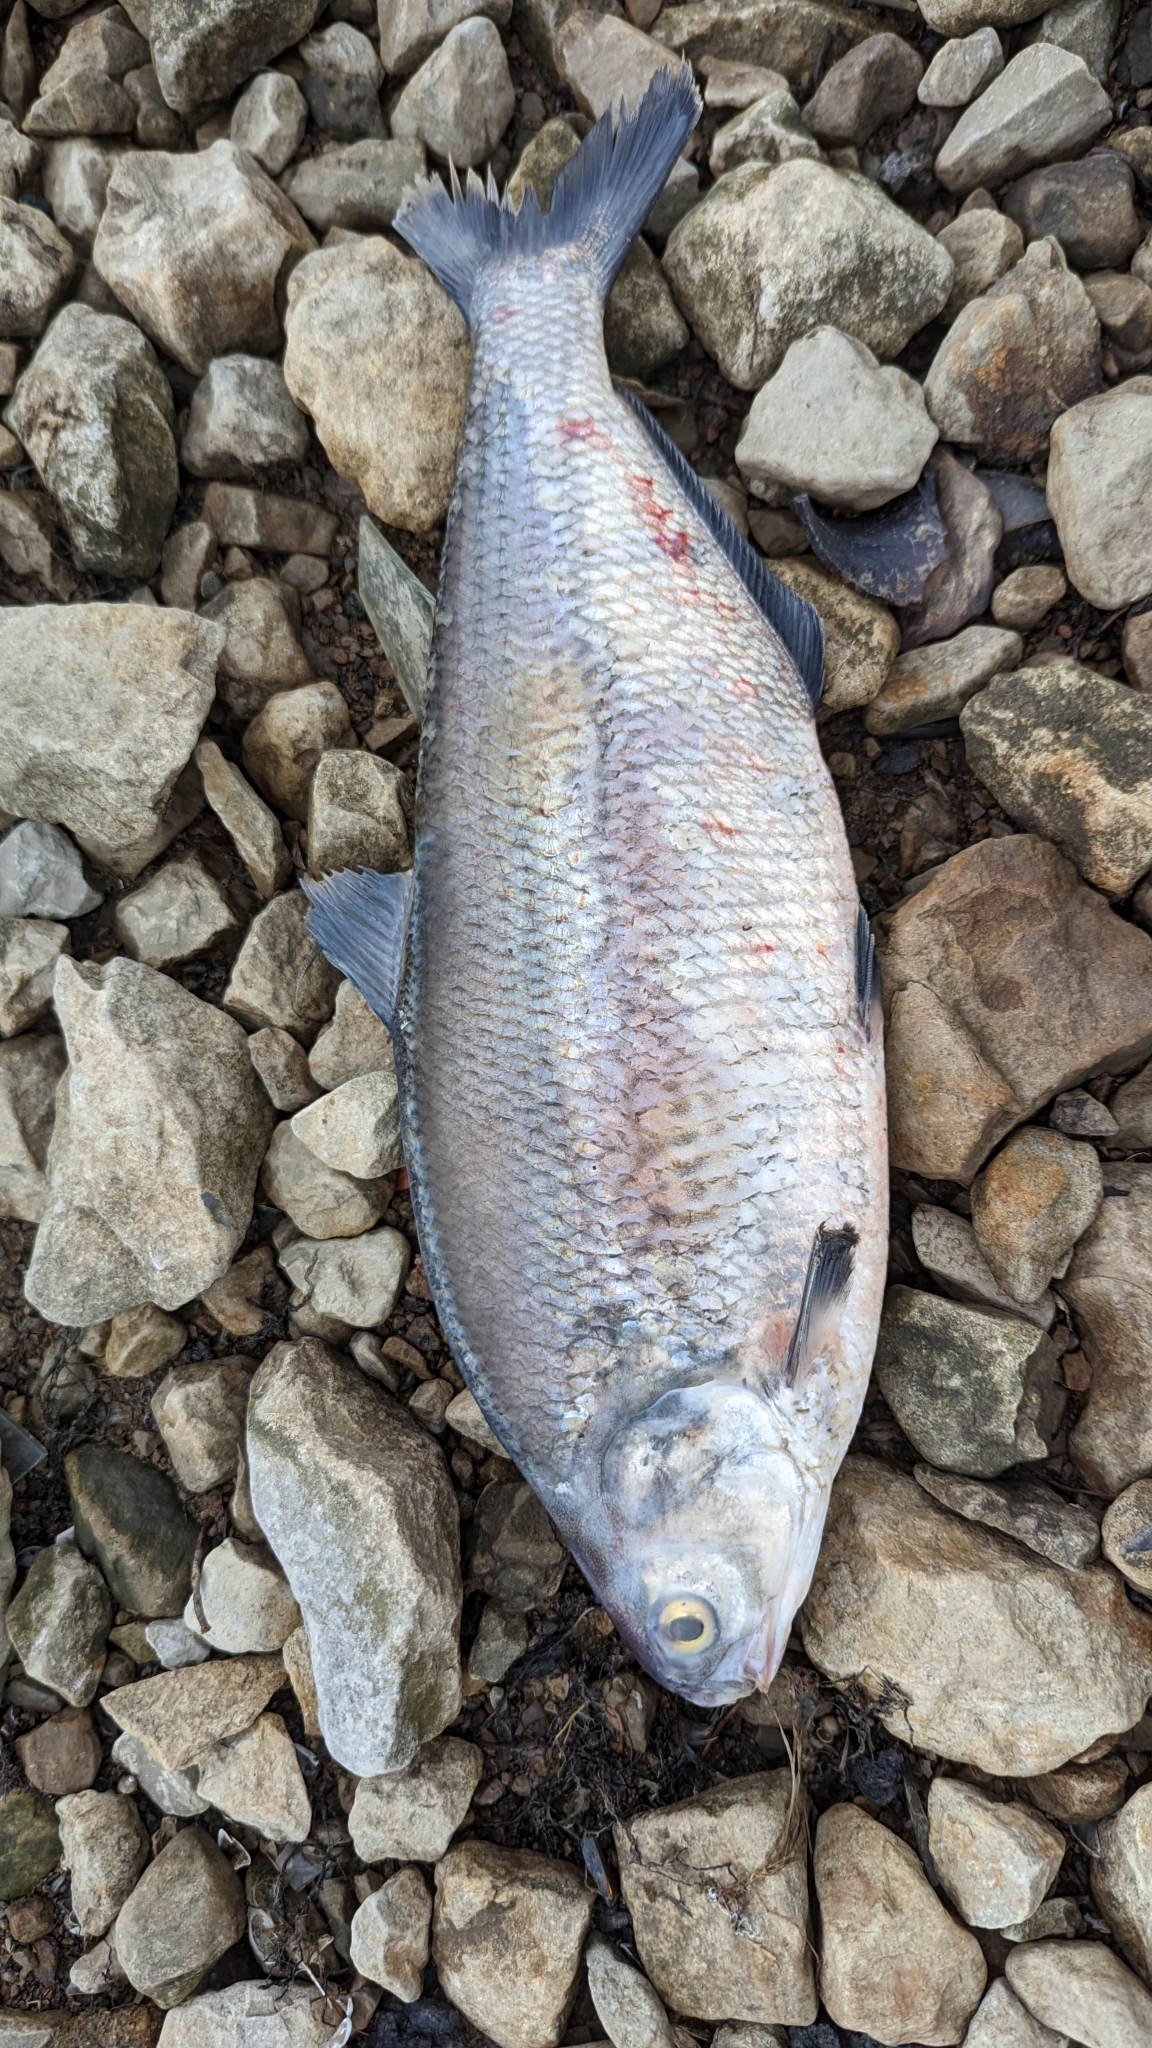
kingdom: Animalia
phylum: Chordata
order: Clupeiformes
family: Clupeidae
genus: Dorosoma
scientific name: Dorosoma cepedianum
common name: Gizzard shad
